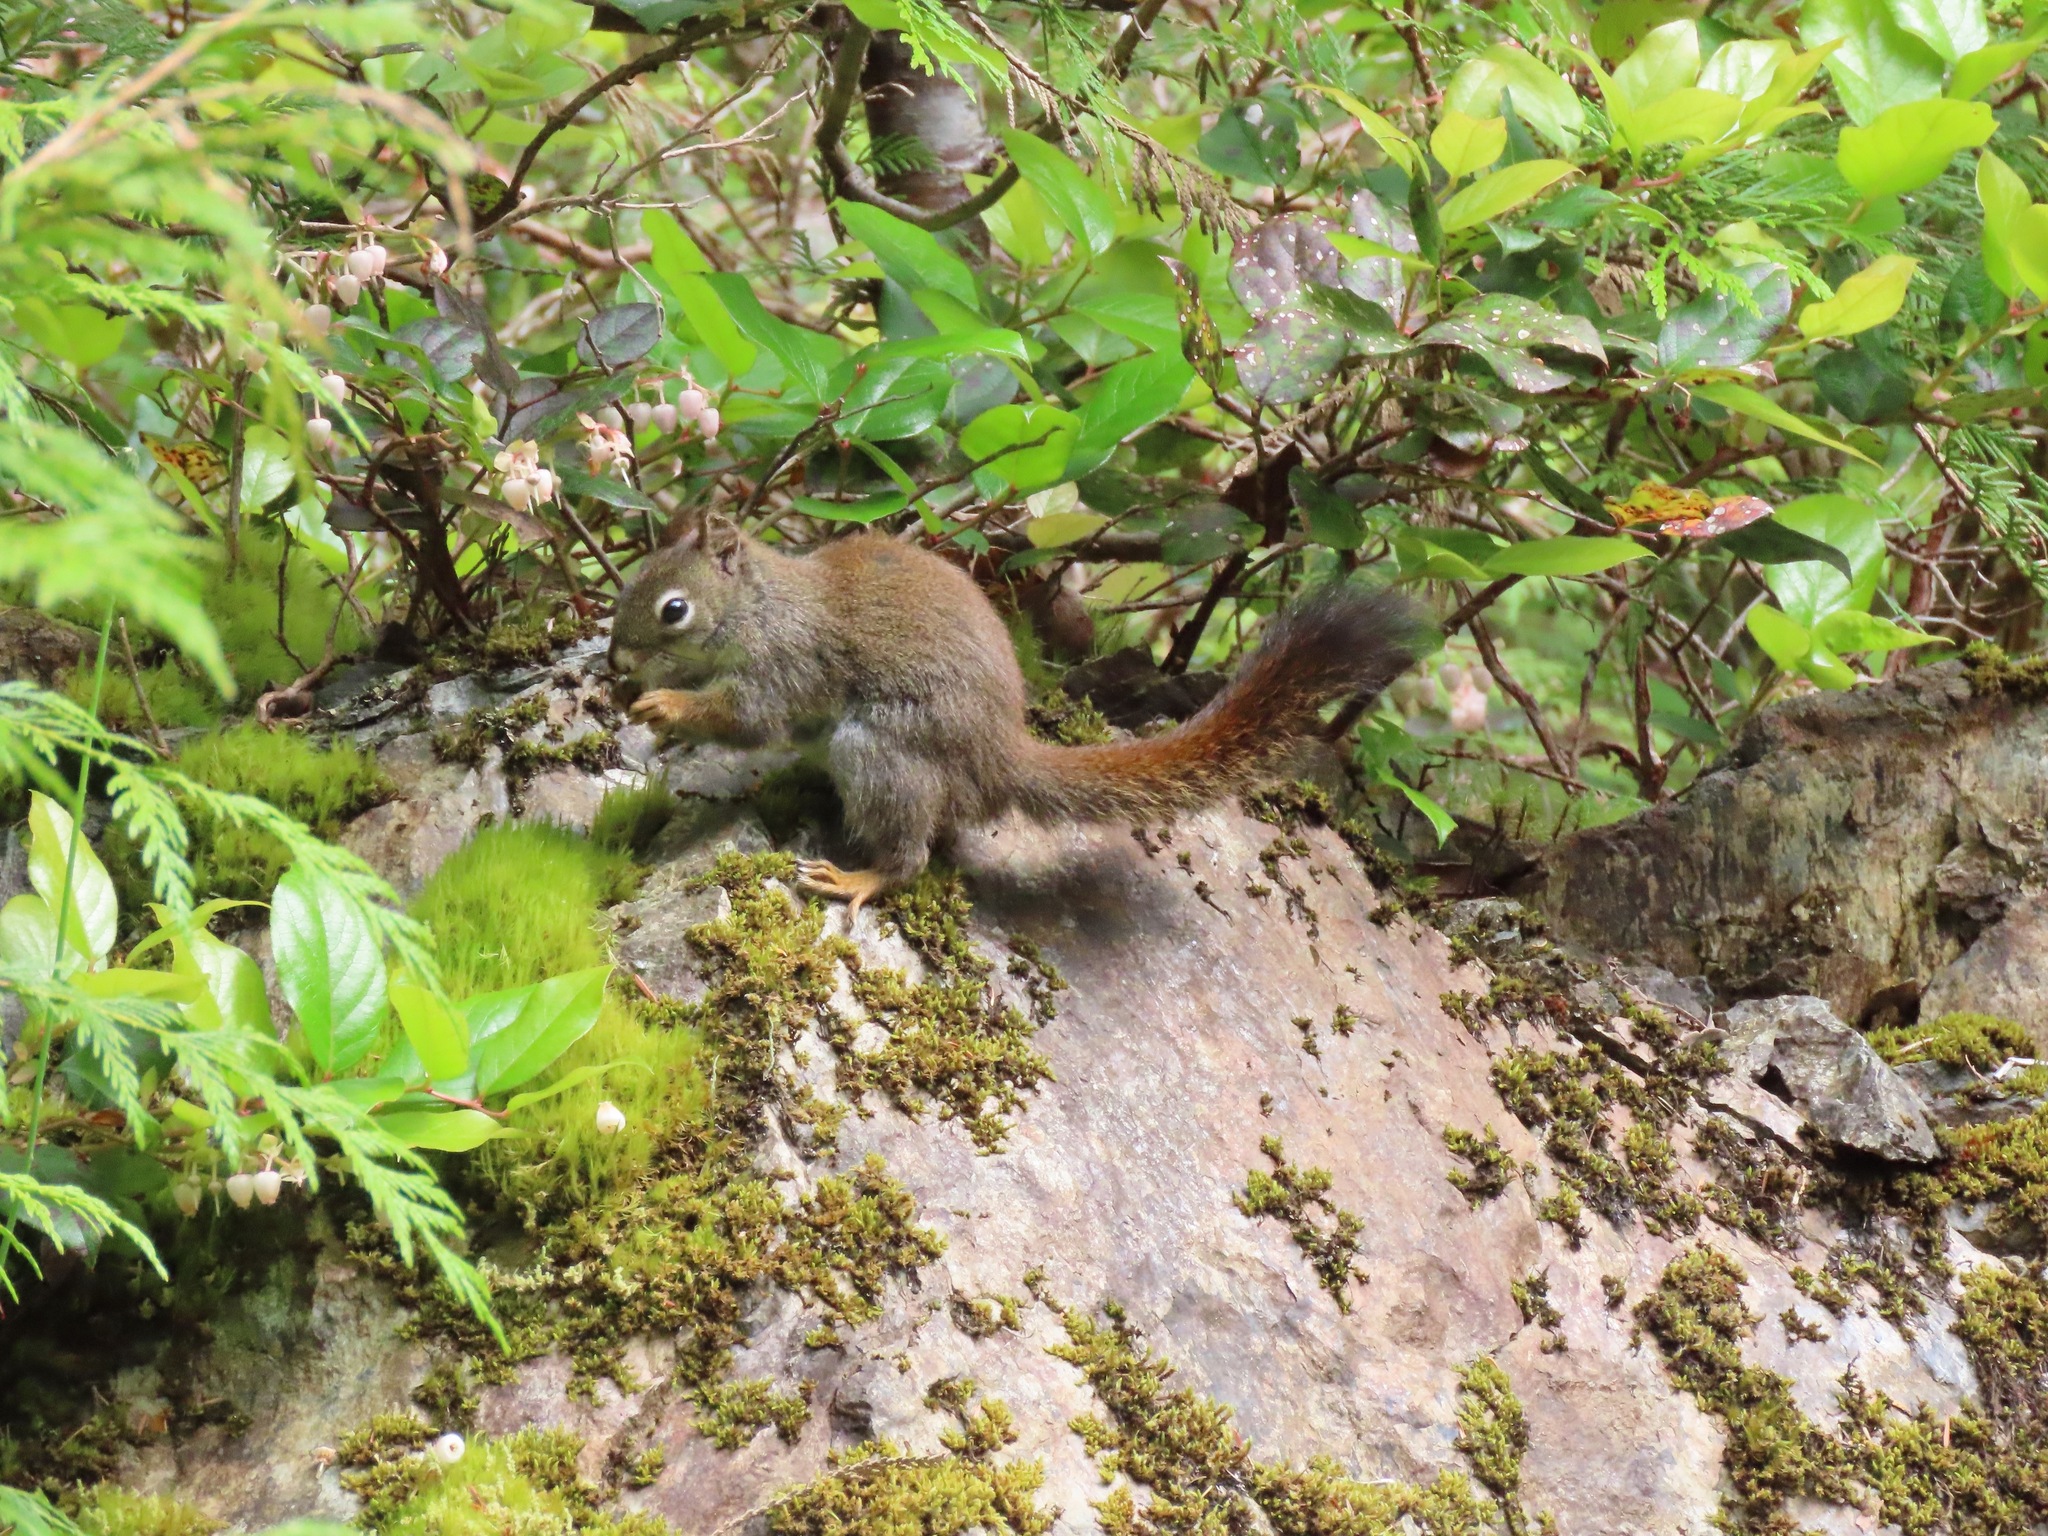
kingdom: Animalia
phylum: Chordata
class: Mammalia
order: Rodentia
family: Sciuridae
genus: Tamiasciurus
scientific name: Tamiasciurus hudsonicus
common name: Red squirrel
